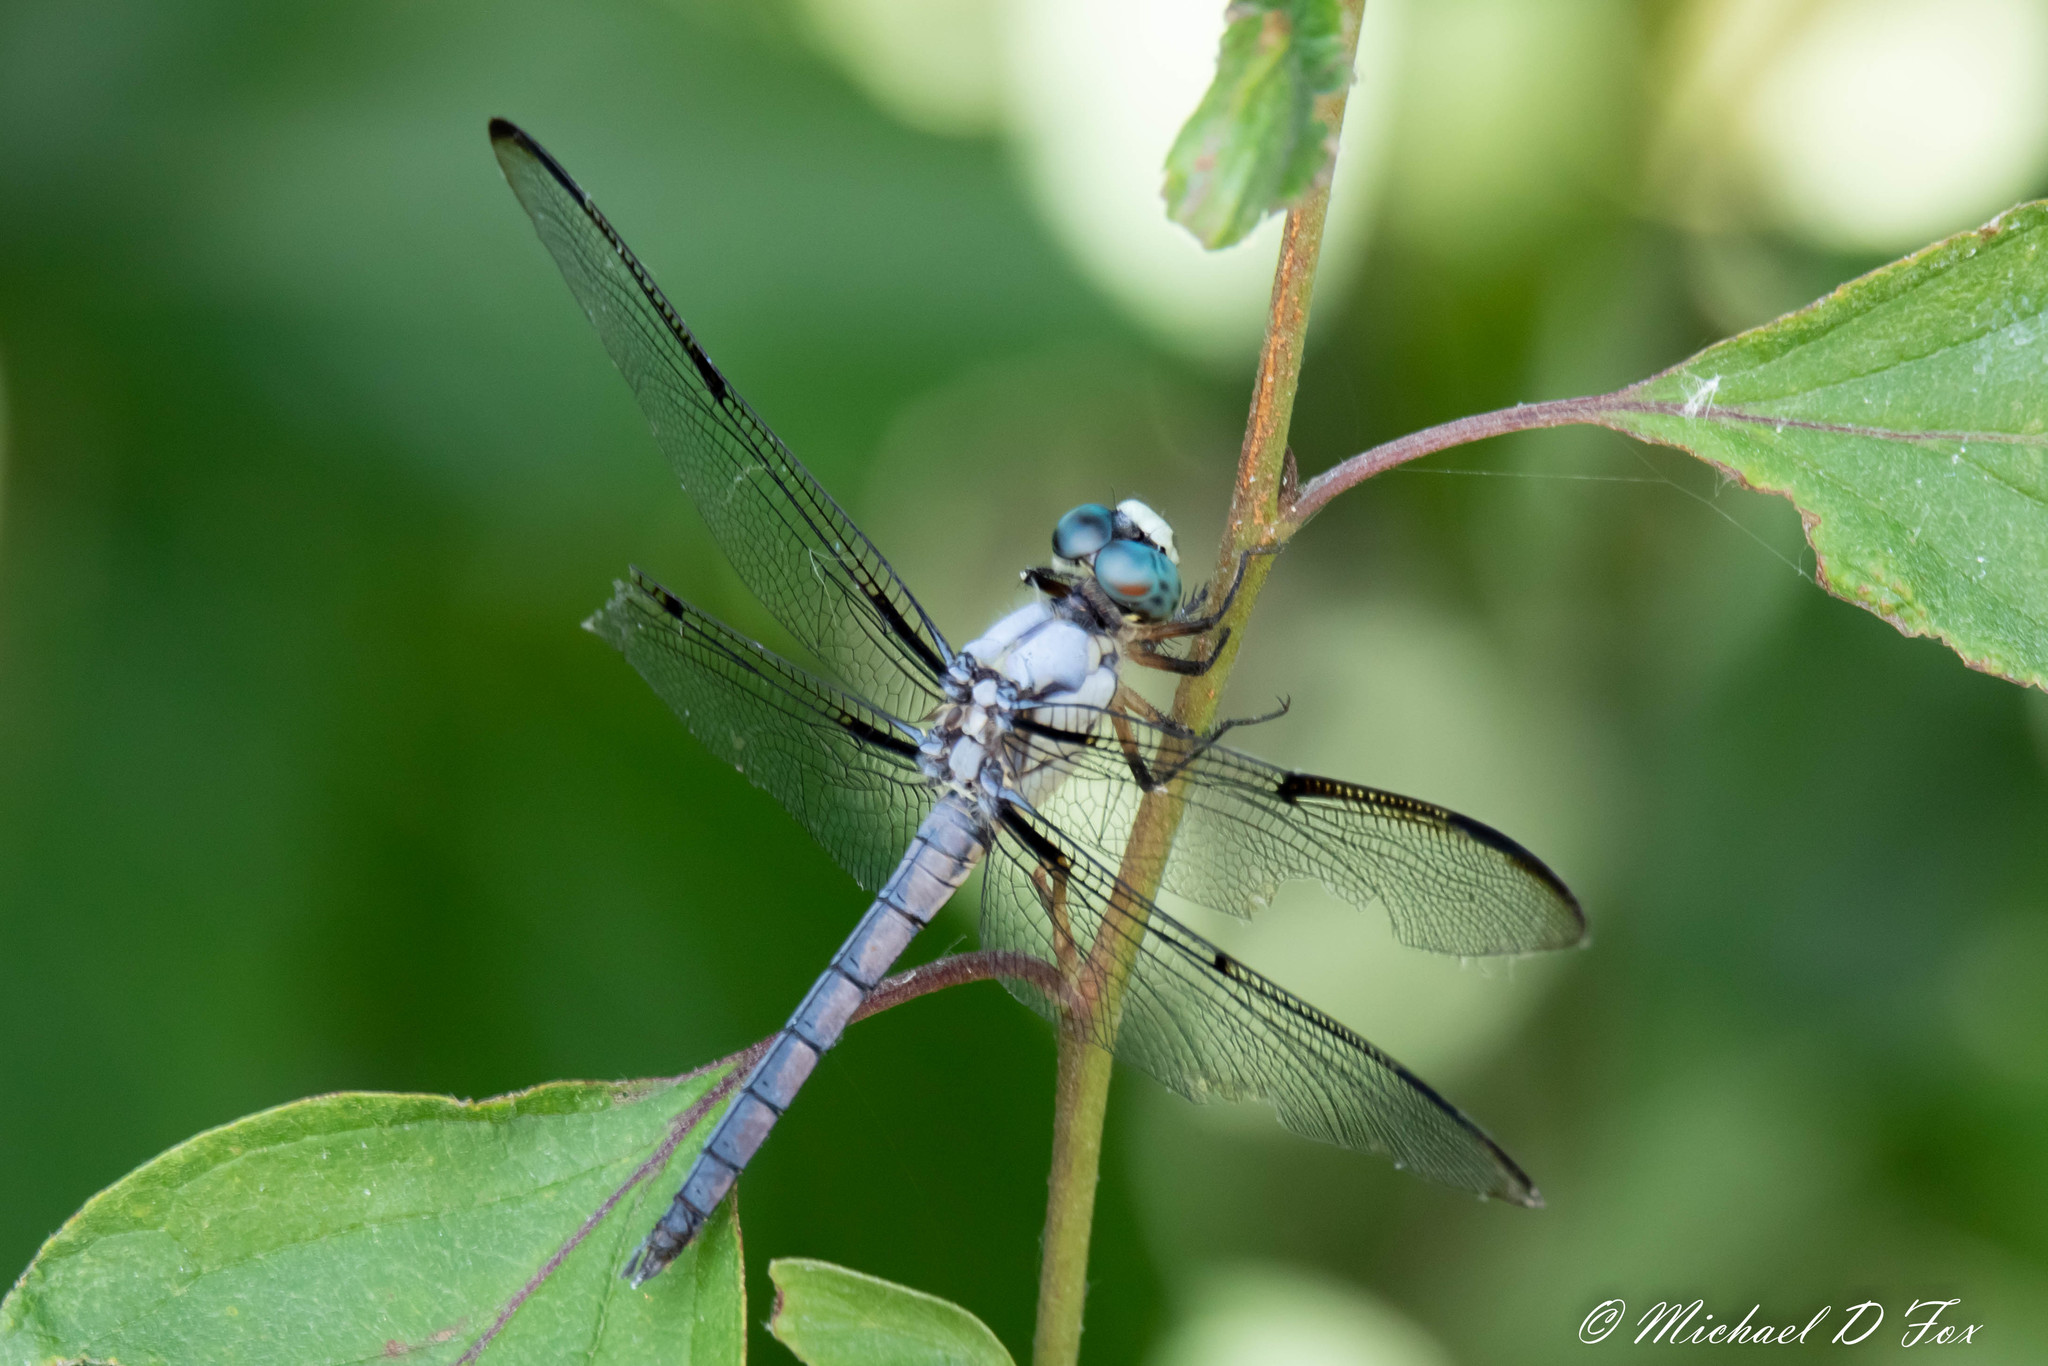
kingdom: Animalia
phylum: Arthropoda
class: Insecta
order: Odonata
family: Libellulidae
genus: Libellula
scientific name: Libellula vibrans
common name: Great blue skimmer
